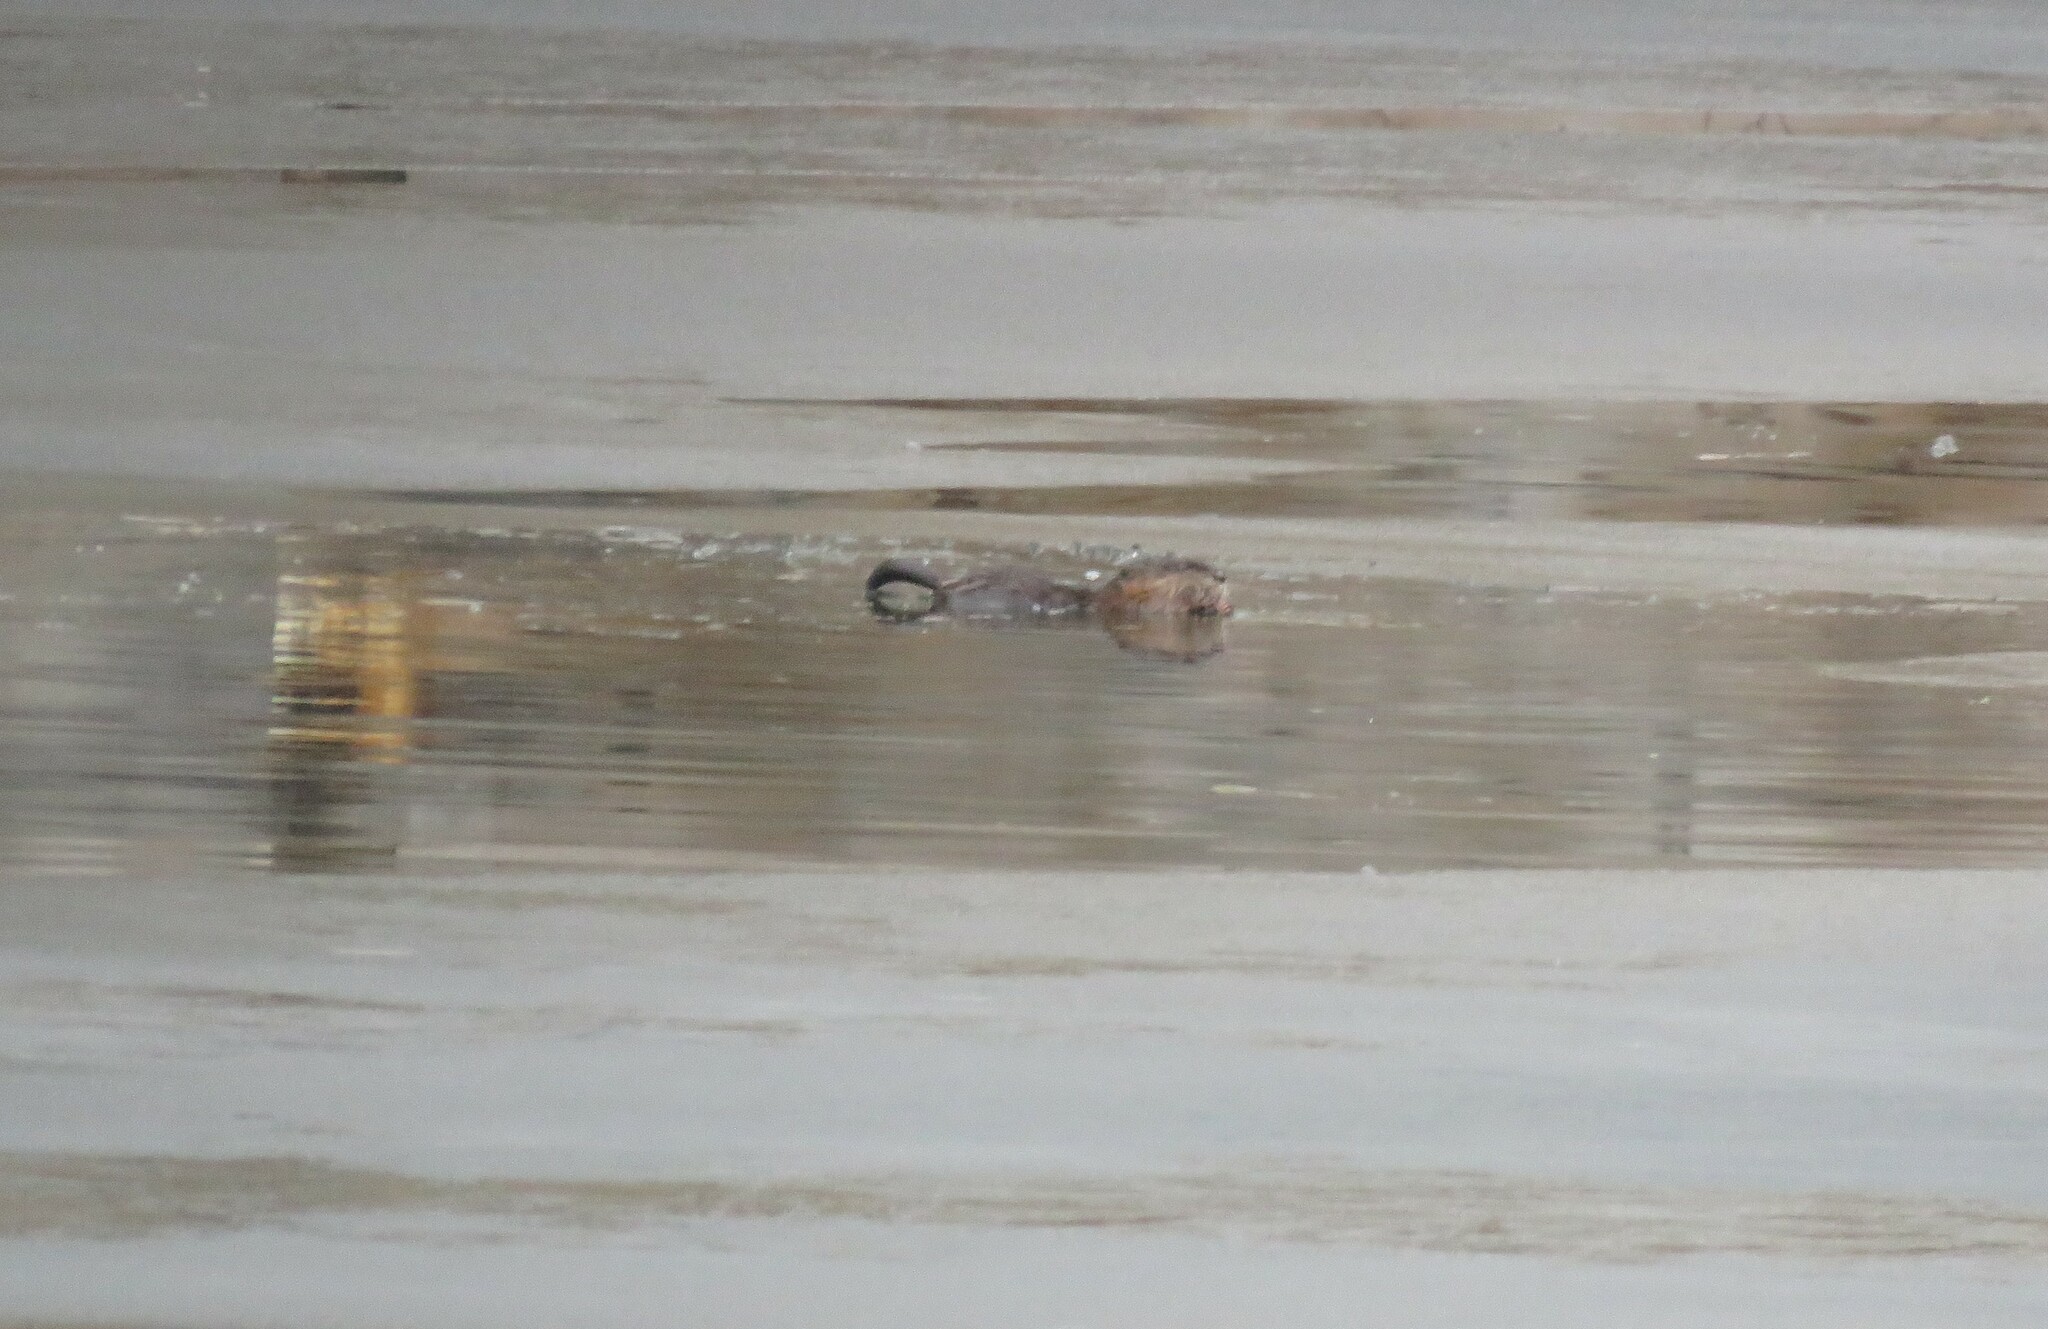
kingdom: Animalia
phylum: Chordata
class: Mammalia
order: Rodentia
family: Cricetidae
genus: Ondatra
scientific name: Ondatra zibethicus
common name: Muskrat
